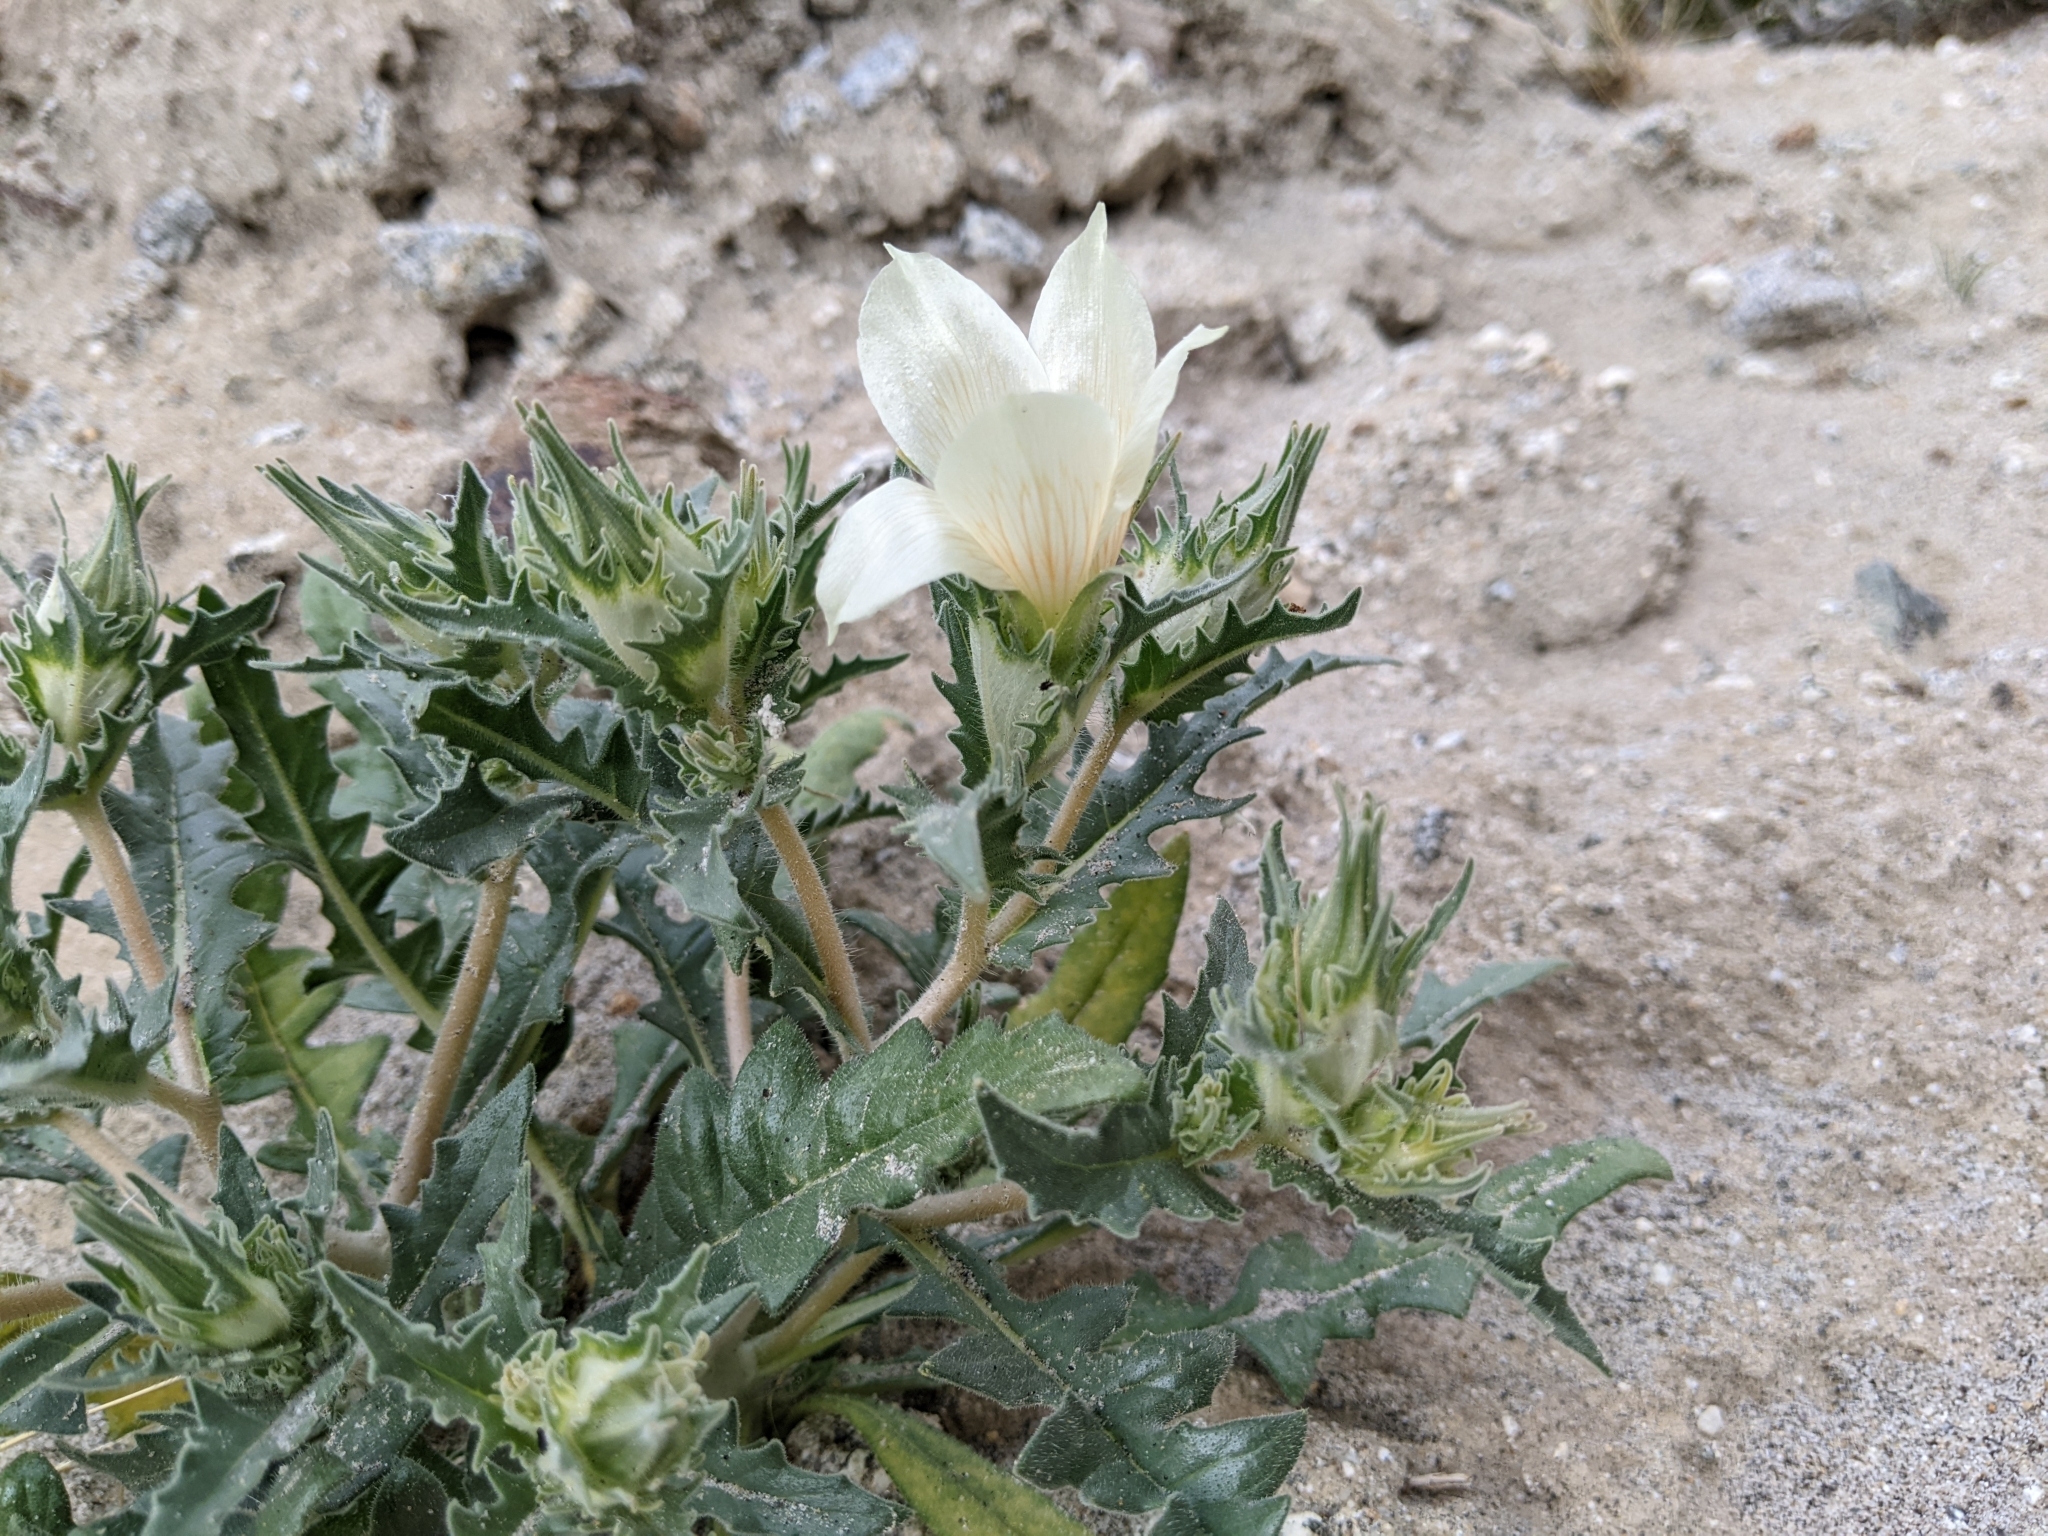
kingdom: Plantae
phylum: Tracheophyta
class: Magnoliopsida
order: Cornales
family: Loasaceae
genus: Mentzelia
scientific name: Mentzelia involucrata
